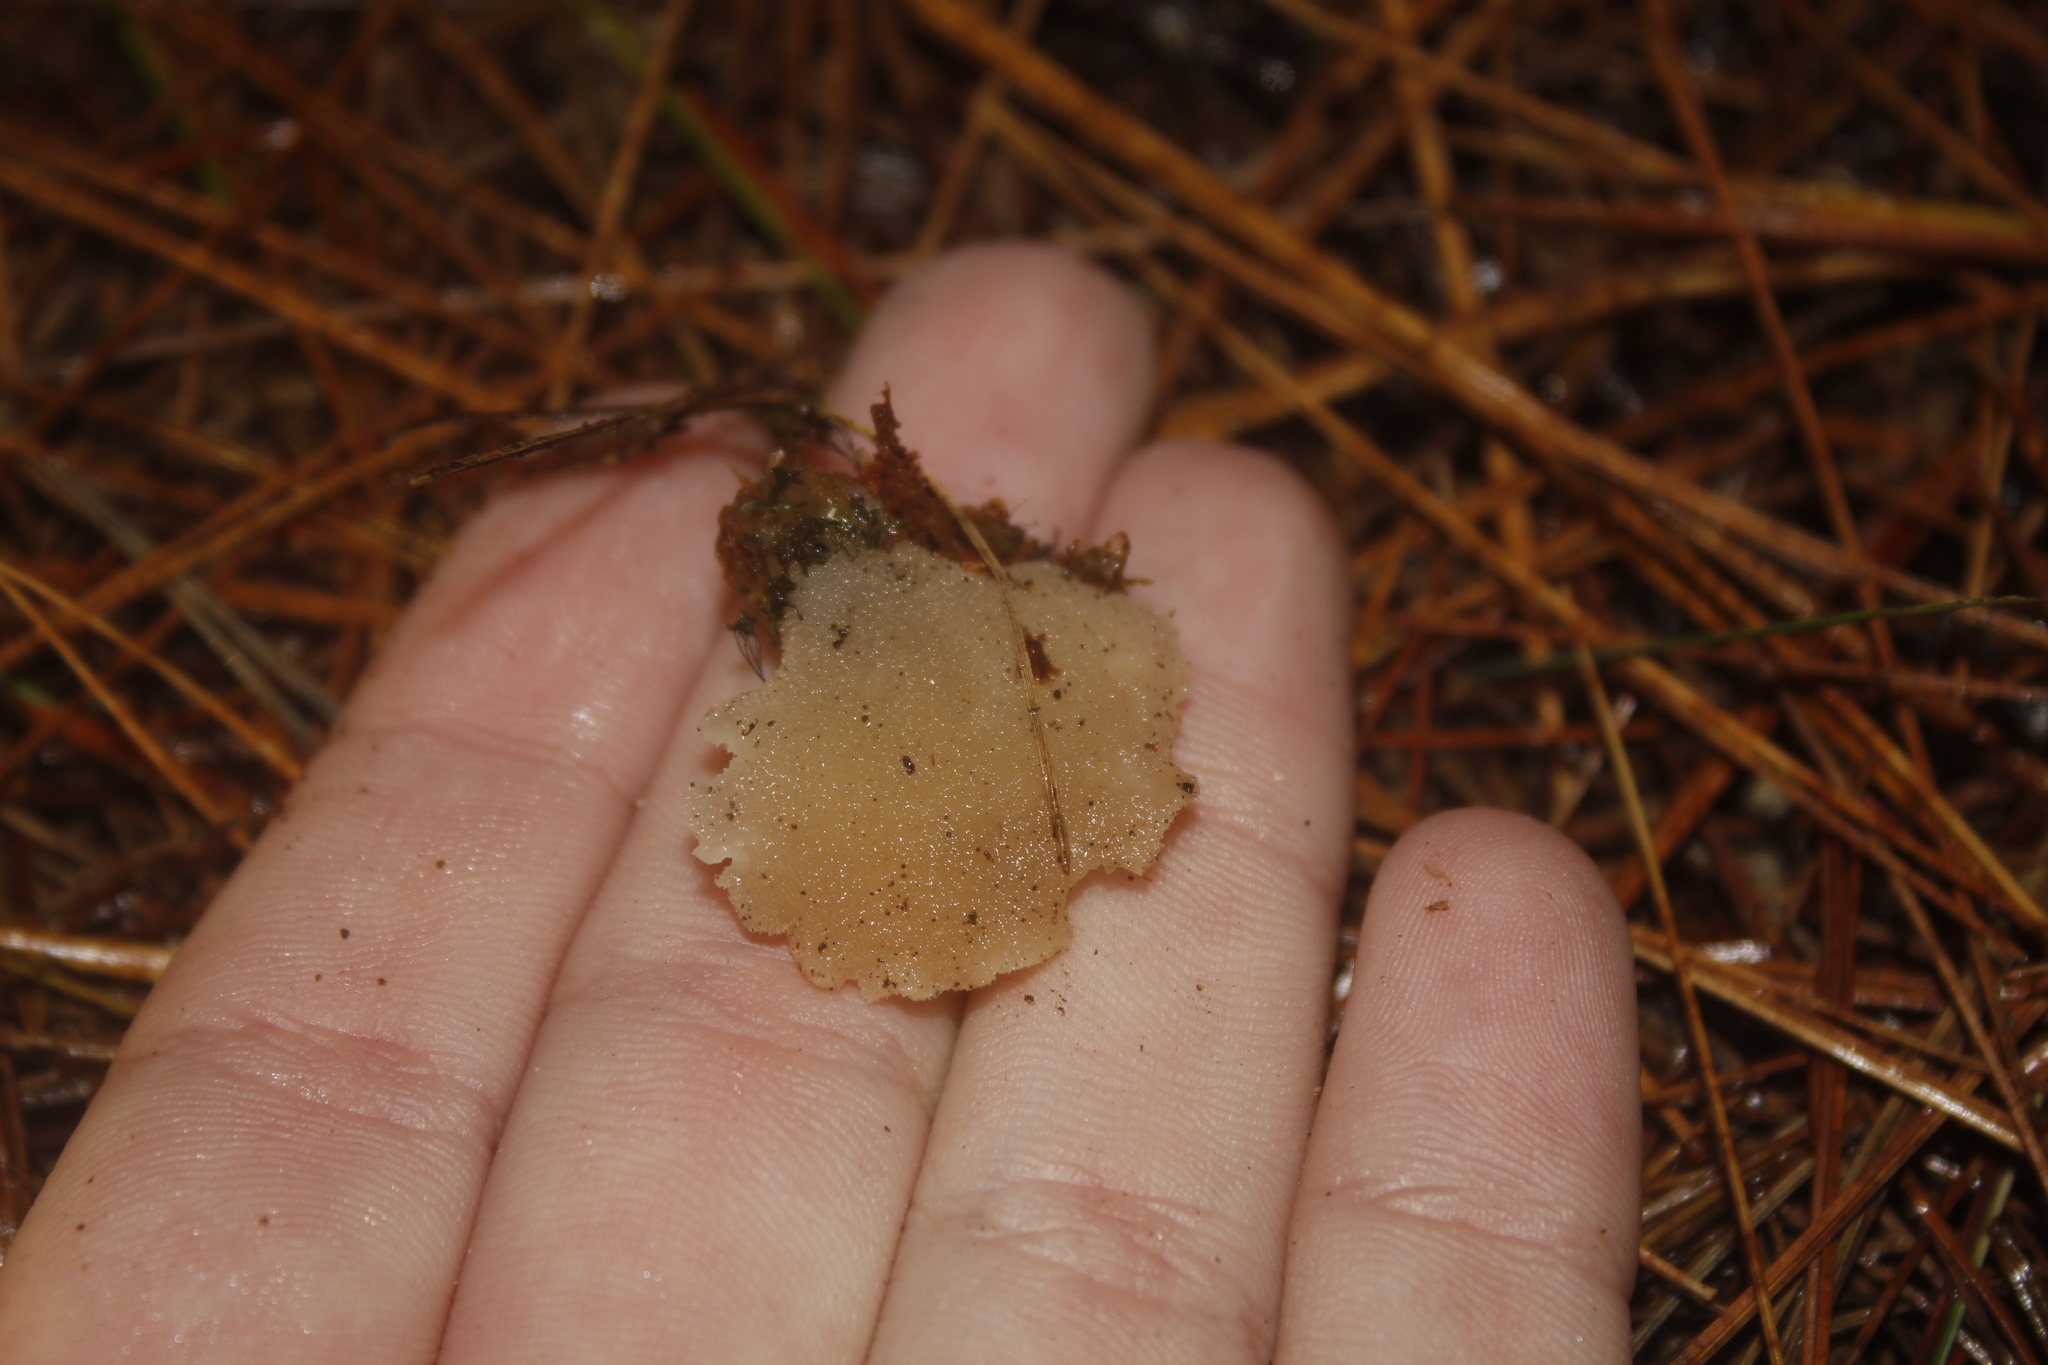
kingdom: Fungi
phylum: Basidiomycota
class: Agaricomycetes
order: Auriculariales
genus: Pseudohydnum
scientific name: Pseudohydnum gelatinosum
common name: Jelly tongue
